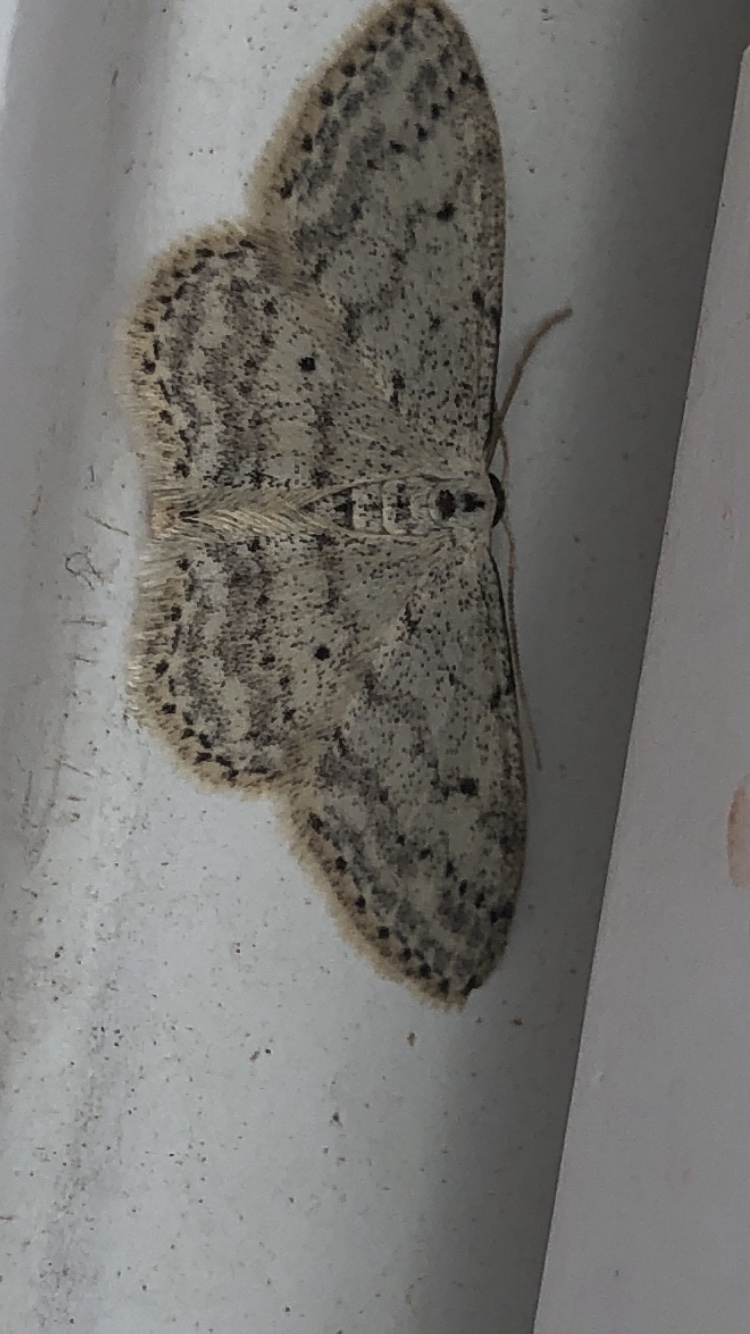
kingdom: Animalia
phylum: Arthropoda
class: Insecta
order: Lepidoptera
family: Geometridae
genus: Idaea
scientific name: Idaea seriata
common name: Small dusty wave
